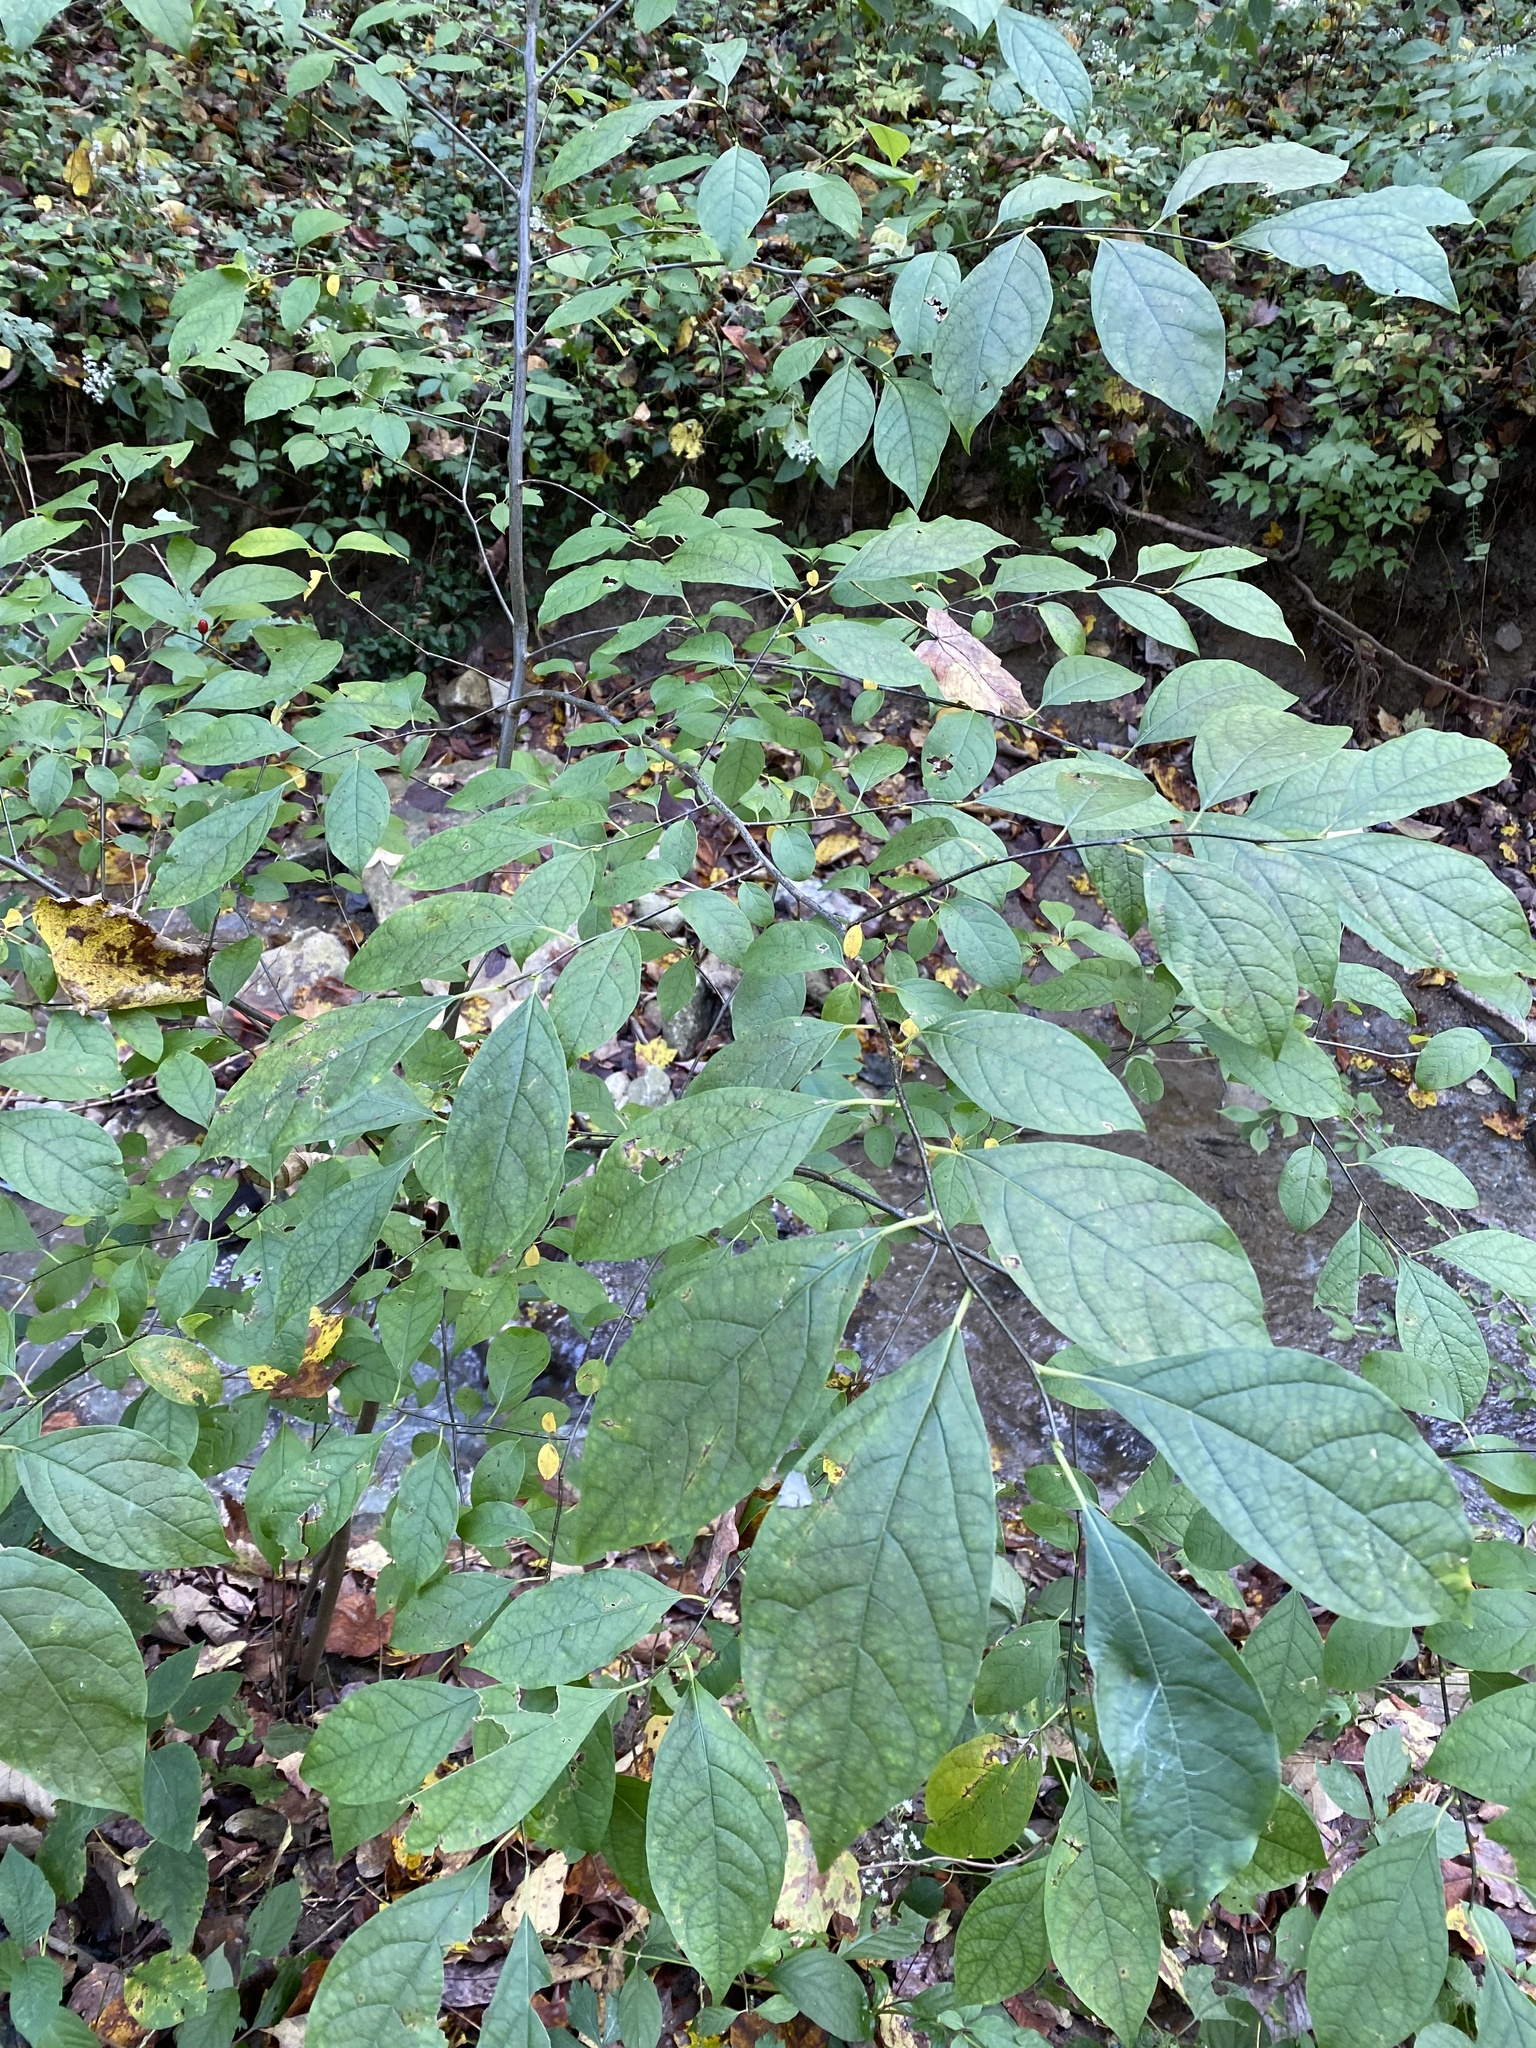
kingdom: Plantae
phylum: Tracheophyta
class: Magnoliopsida
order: Laurales
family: Lauraceae
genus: Lindera
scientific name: Lindera benzoin
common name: Spicebush
